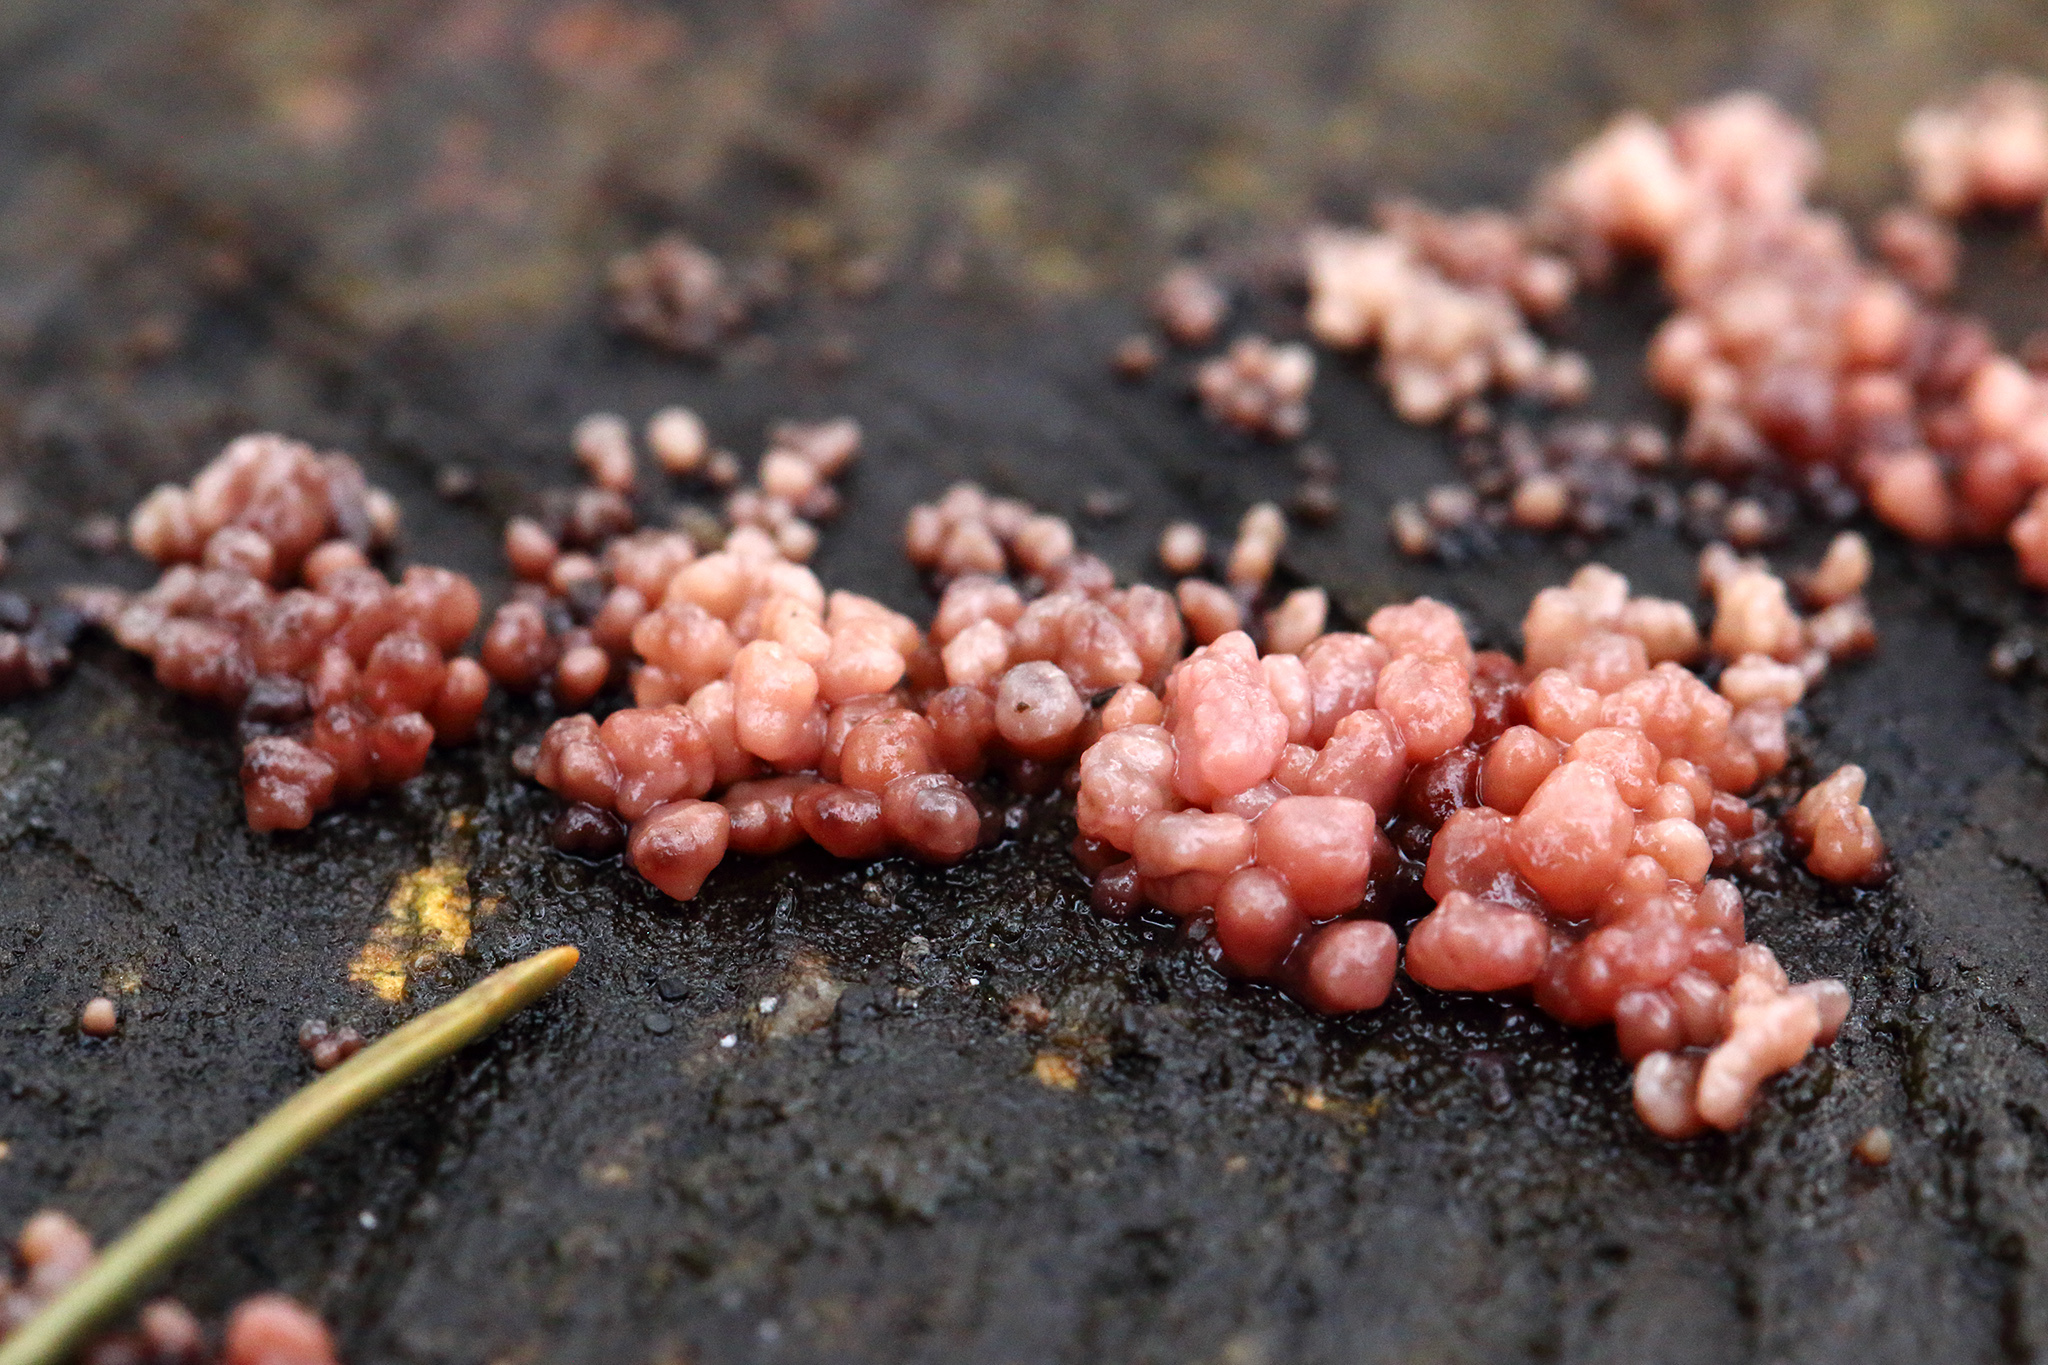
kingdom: Fungi
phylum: Ascomycota
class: Leotiomycetes
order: Helotiales
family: Gelatinodiscaceae
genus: Ascocoryne
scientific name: Ascocoryne sarcoides
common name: Purple jellydisc
